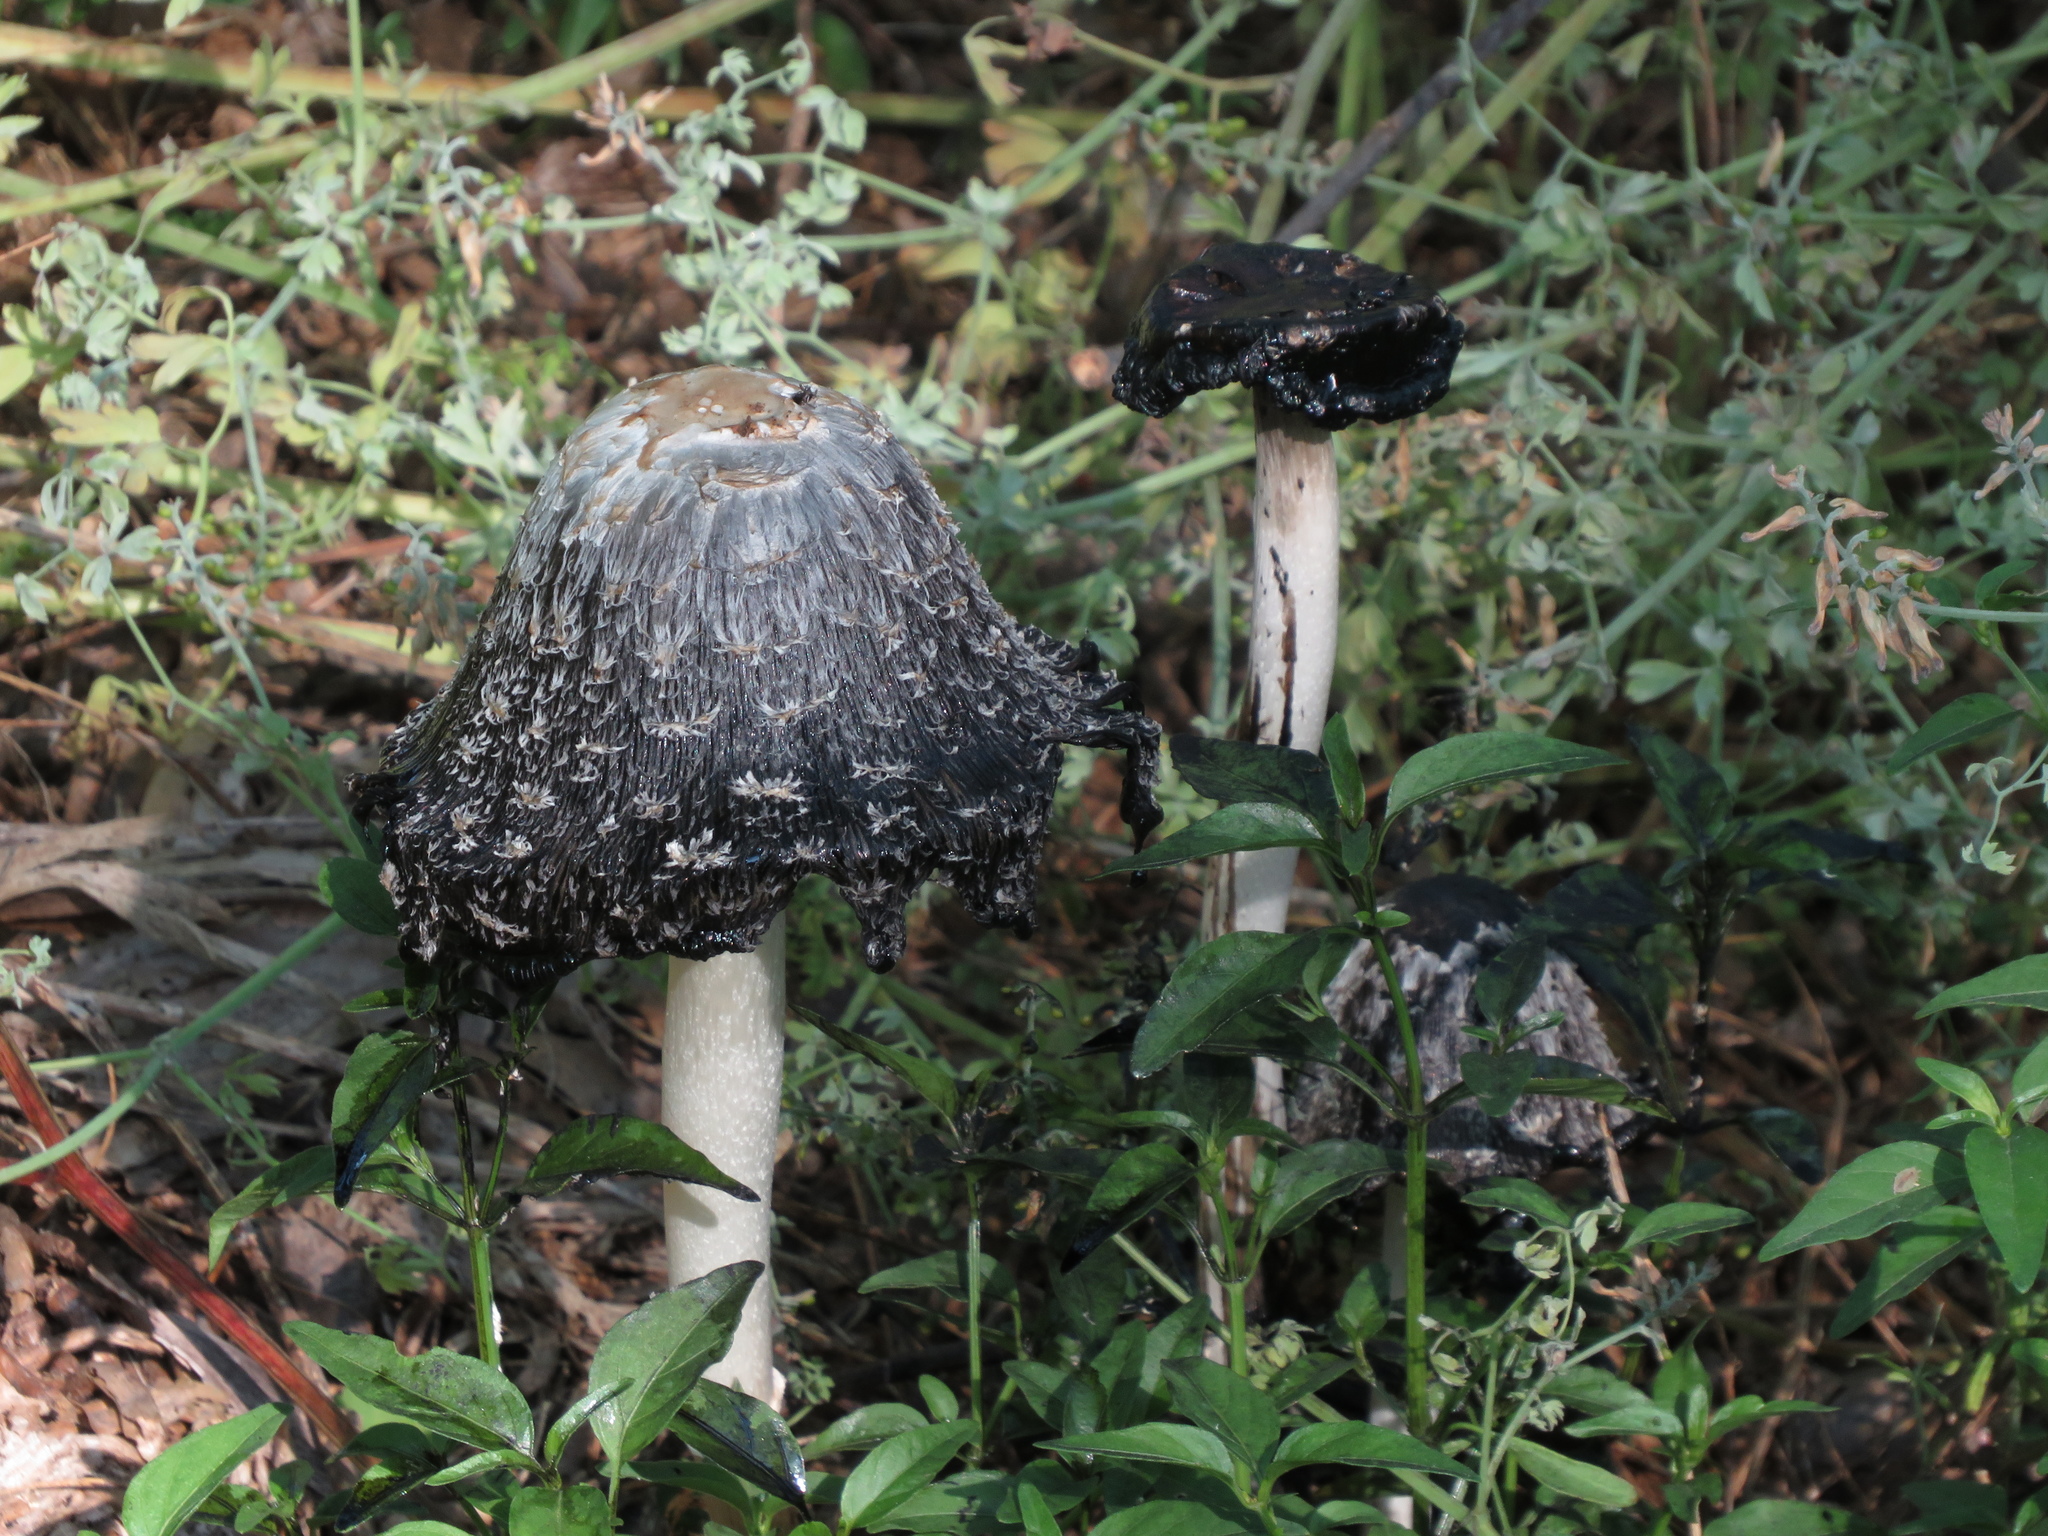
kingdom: Fungi
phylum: Basidiomycota
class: Agaricomycetes
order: Agaricales
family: Agaricaceae
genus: Coprinus
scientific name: Coprinus comatus
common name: Lawyer's wig
